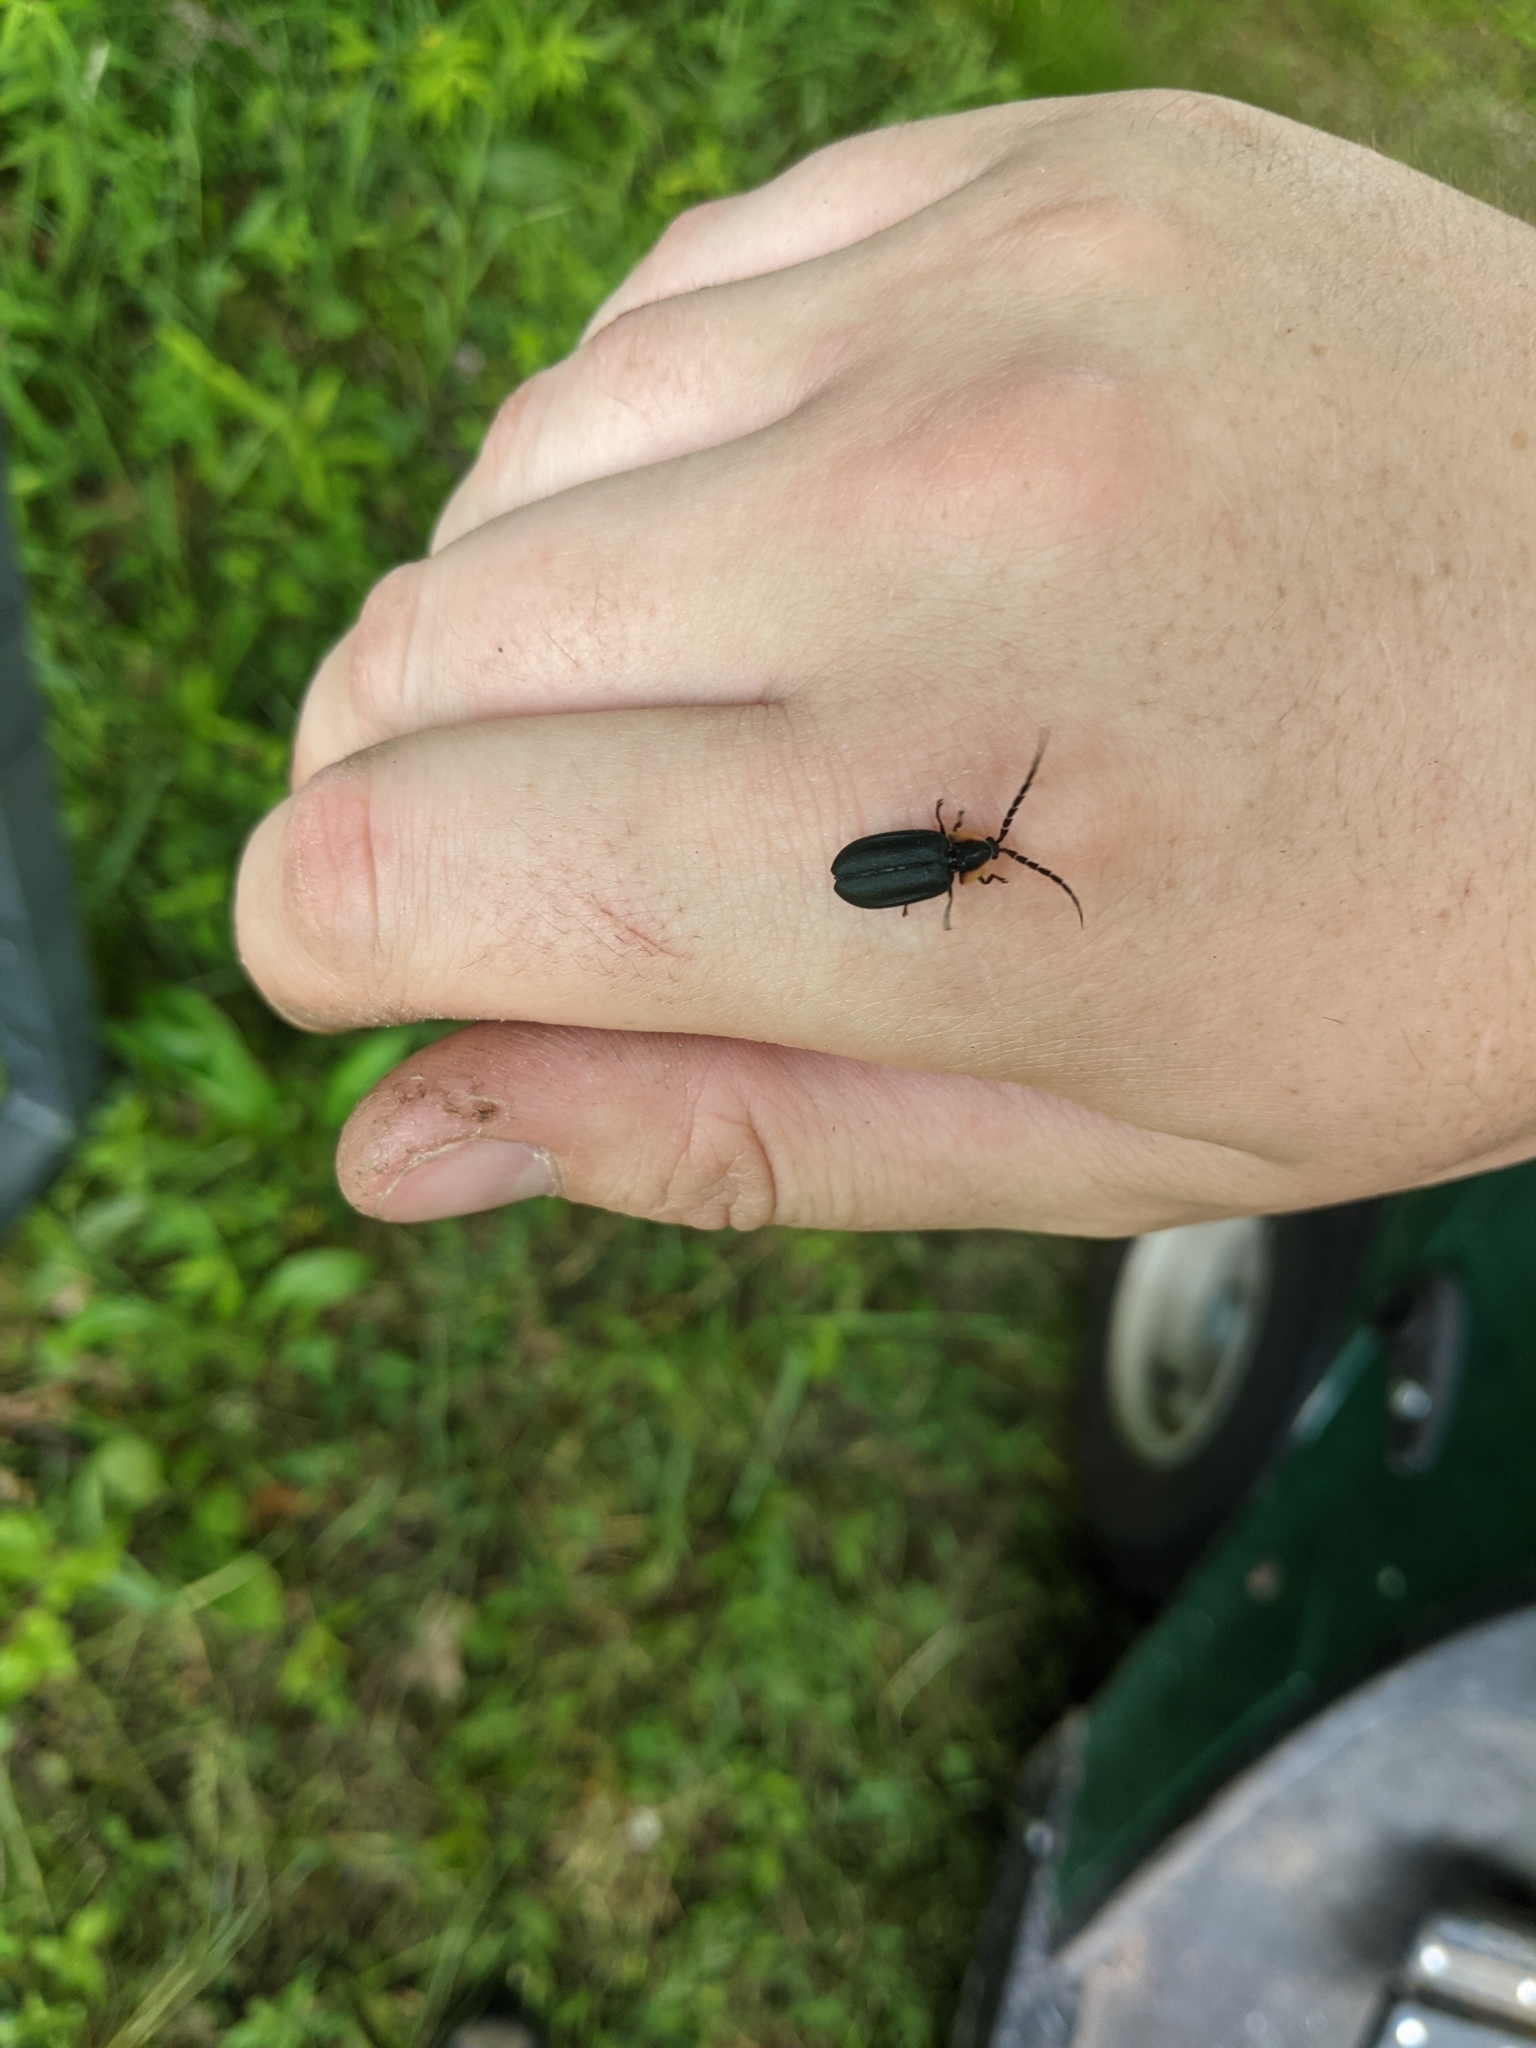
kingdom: Animalia
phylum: Arthropoda
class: Insecta
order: Coleoptera
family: Lampyridae
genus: Lucidota
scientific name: Lucidota atra
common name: Black firefly
